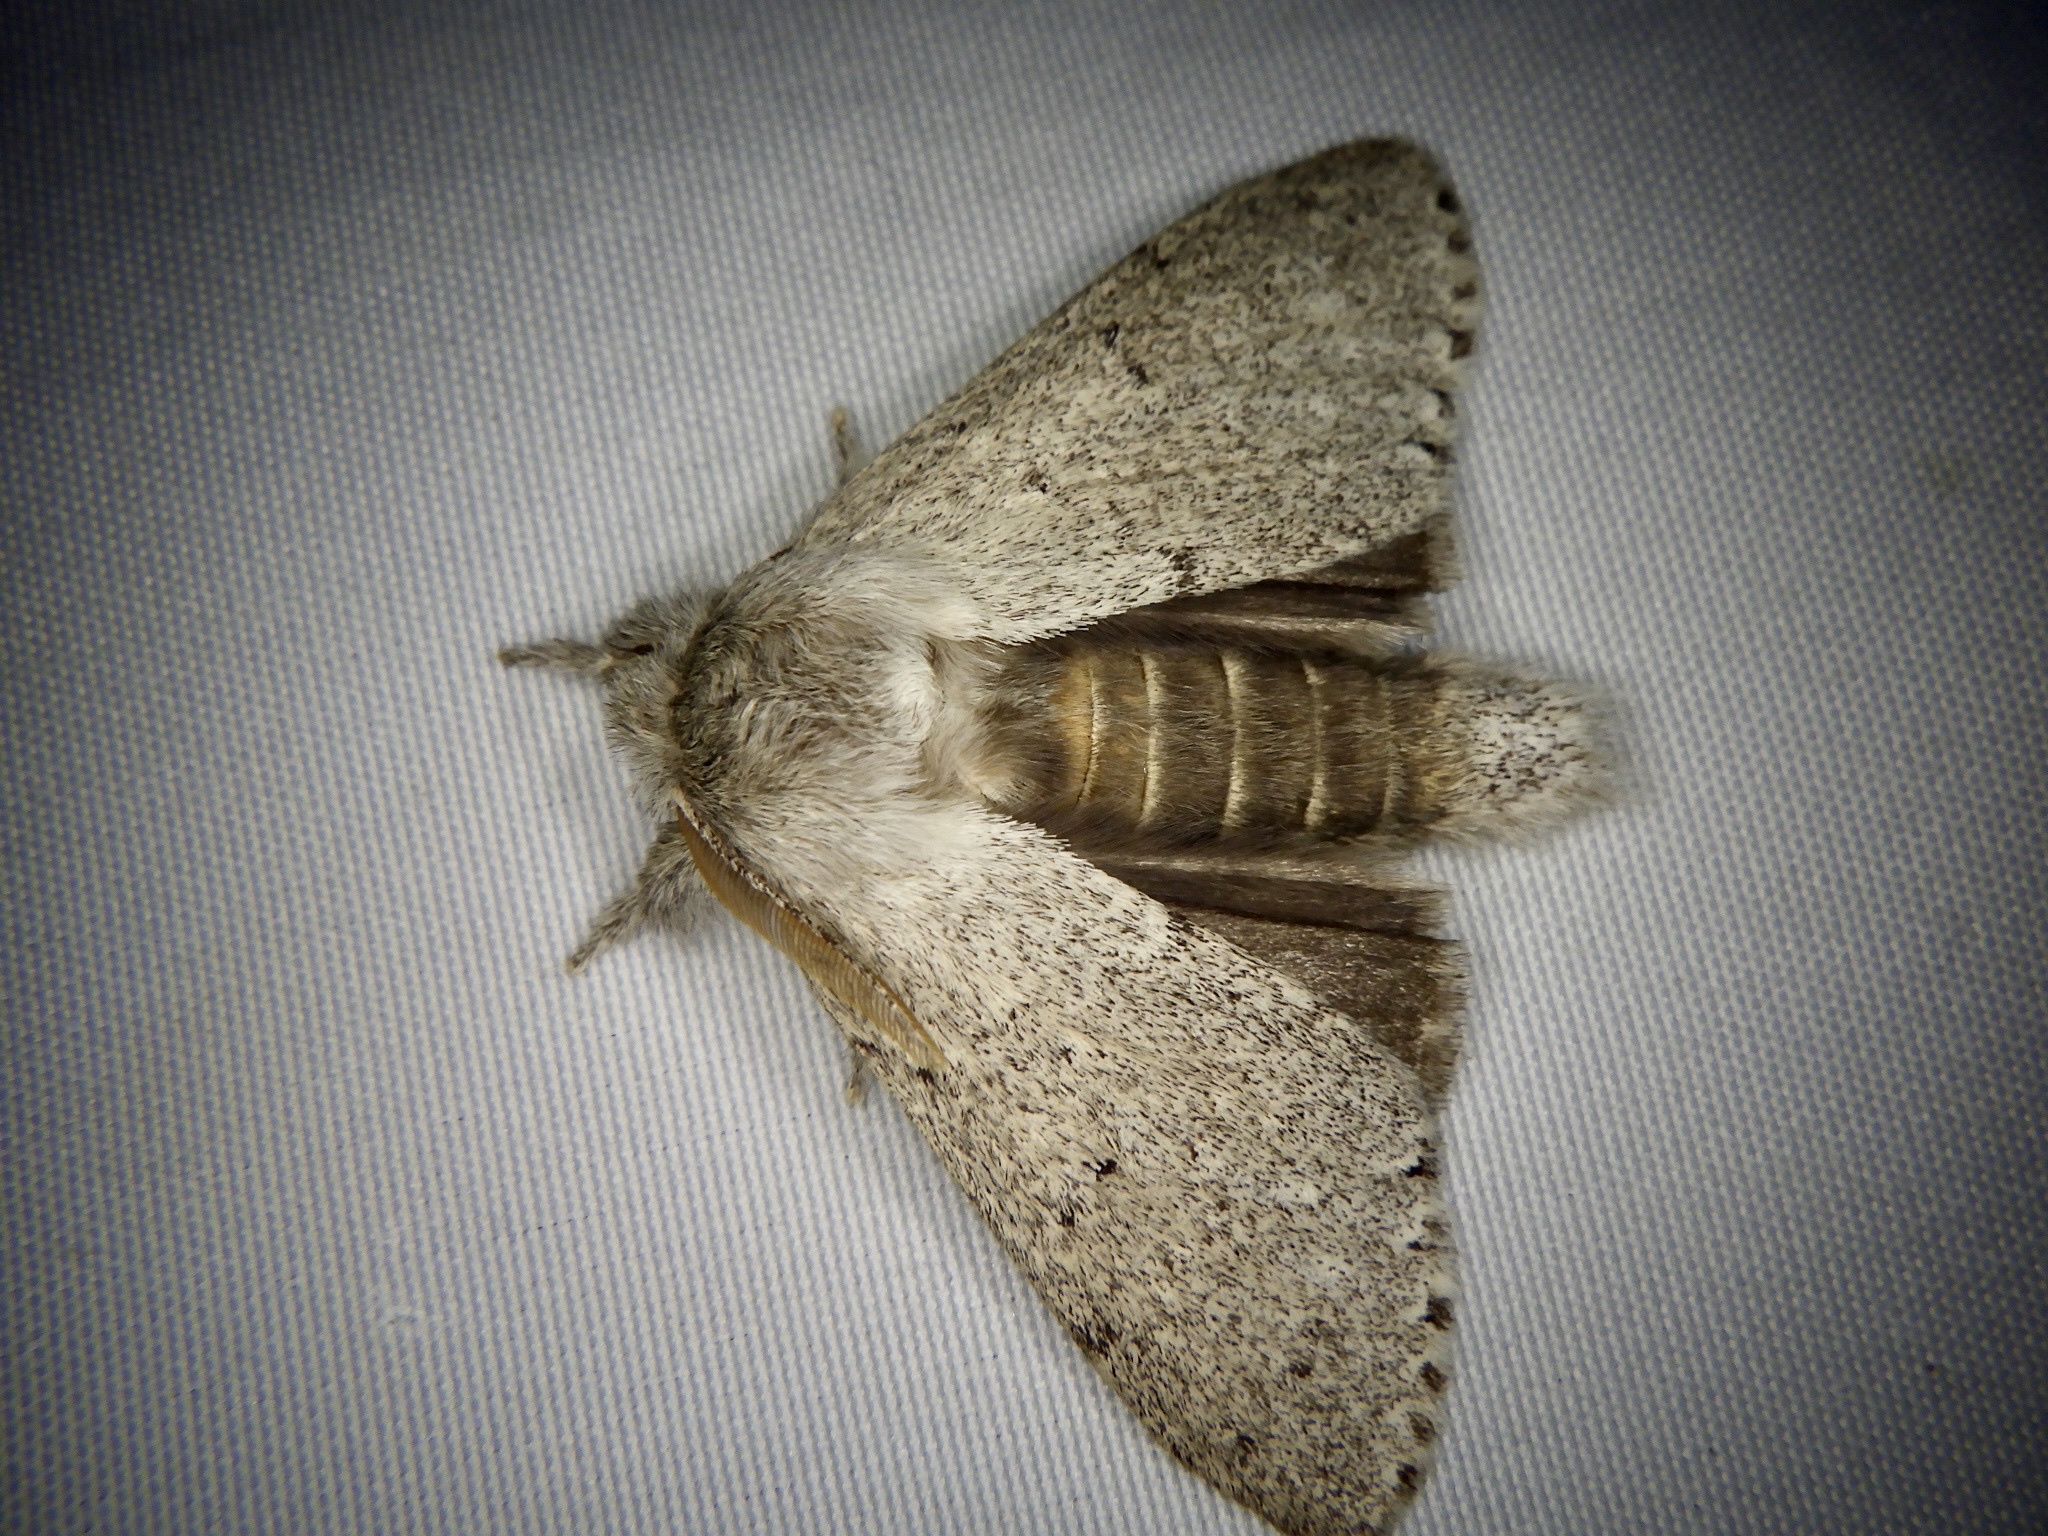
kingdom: Animalia
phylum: Arthropoda
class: Insecta
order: Lepidoptera
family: Notodontidae
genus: Cnethodonta
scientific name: Cnethodonta grisescens
